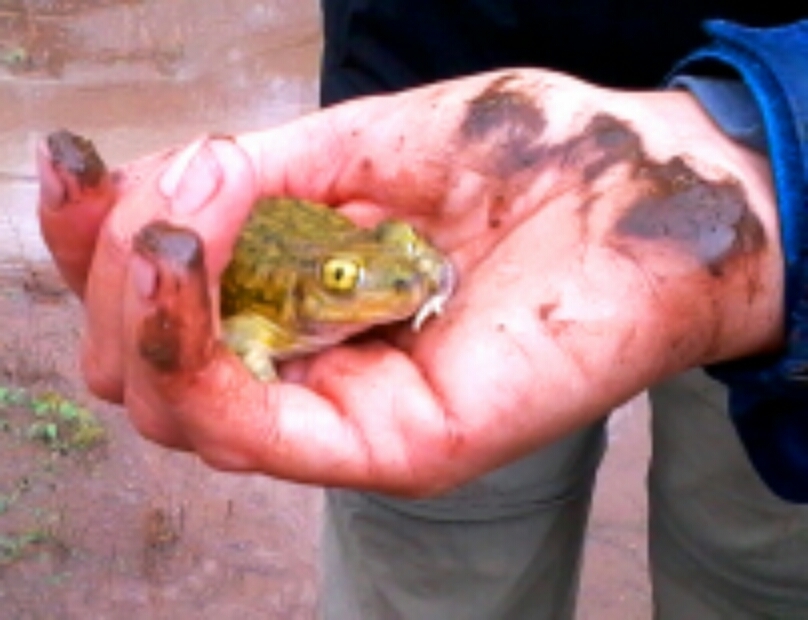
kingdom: Animalia
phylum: Chordata
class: Amphibia
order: Anura
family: Scaphiopodidae
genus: Scaphiopus
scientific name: Scaphiopus couchii
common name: Couch's spadefoot toad
